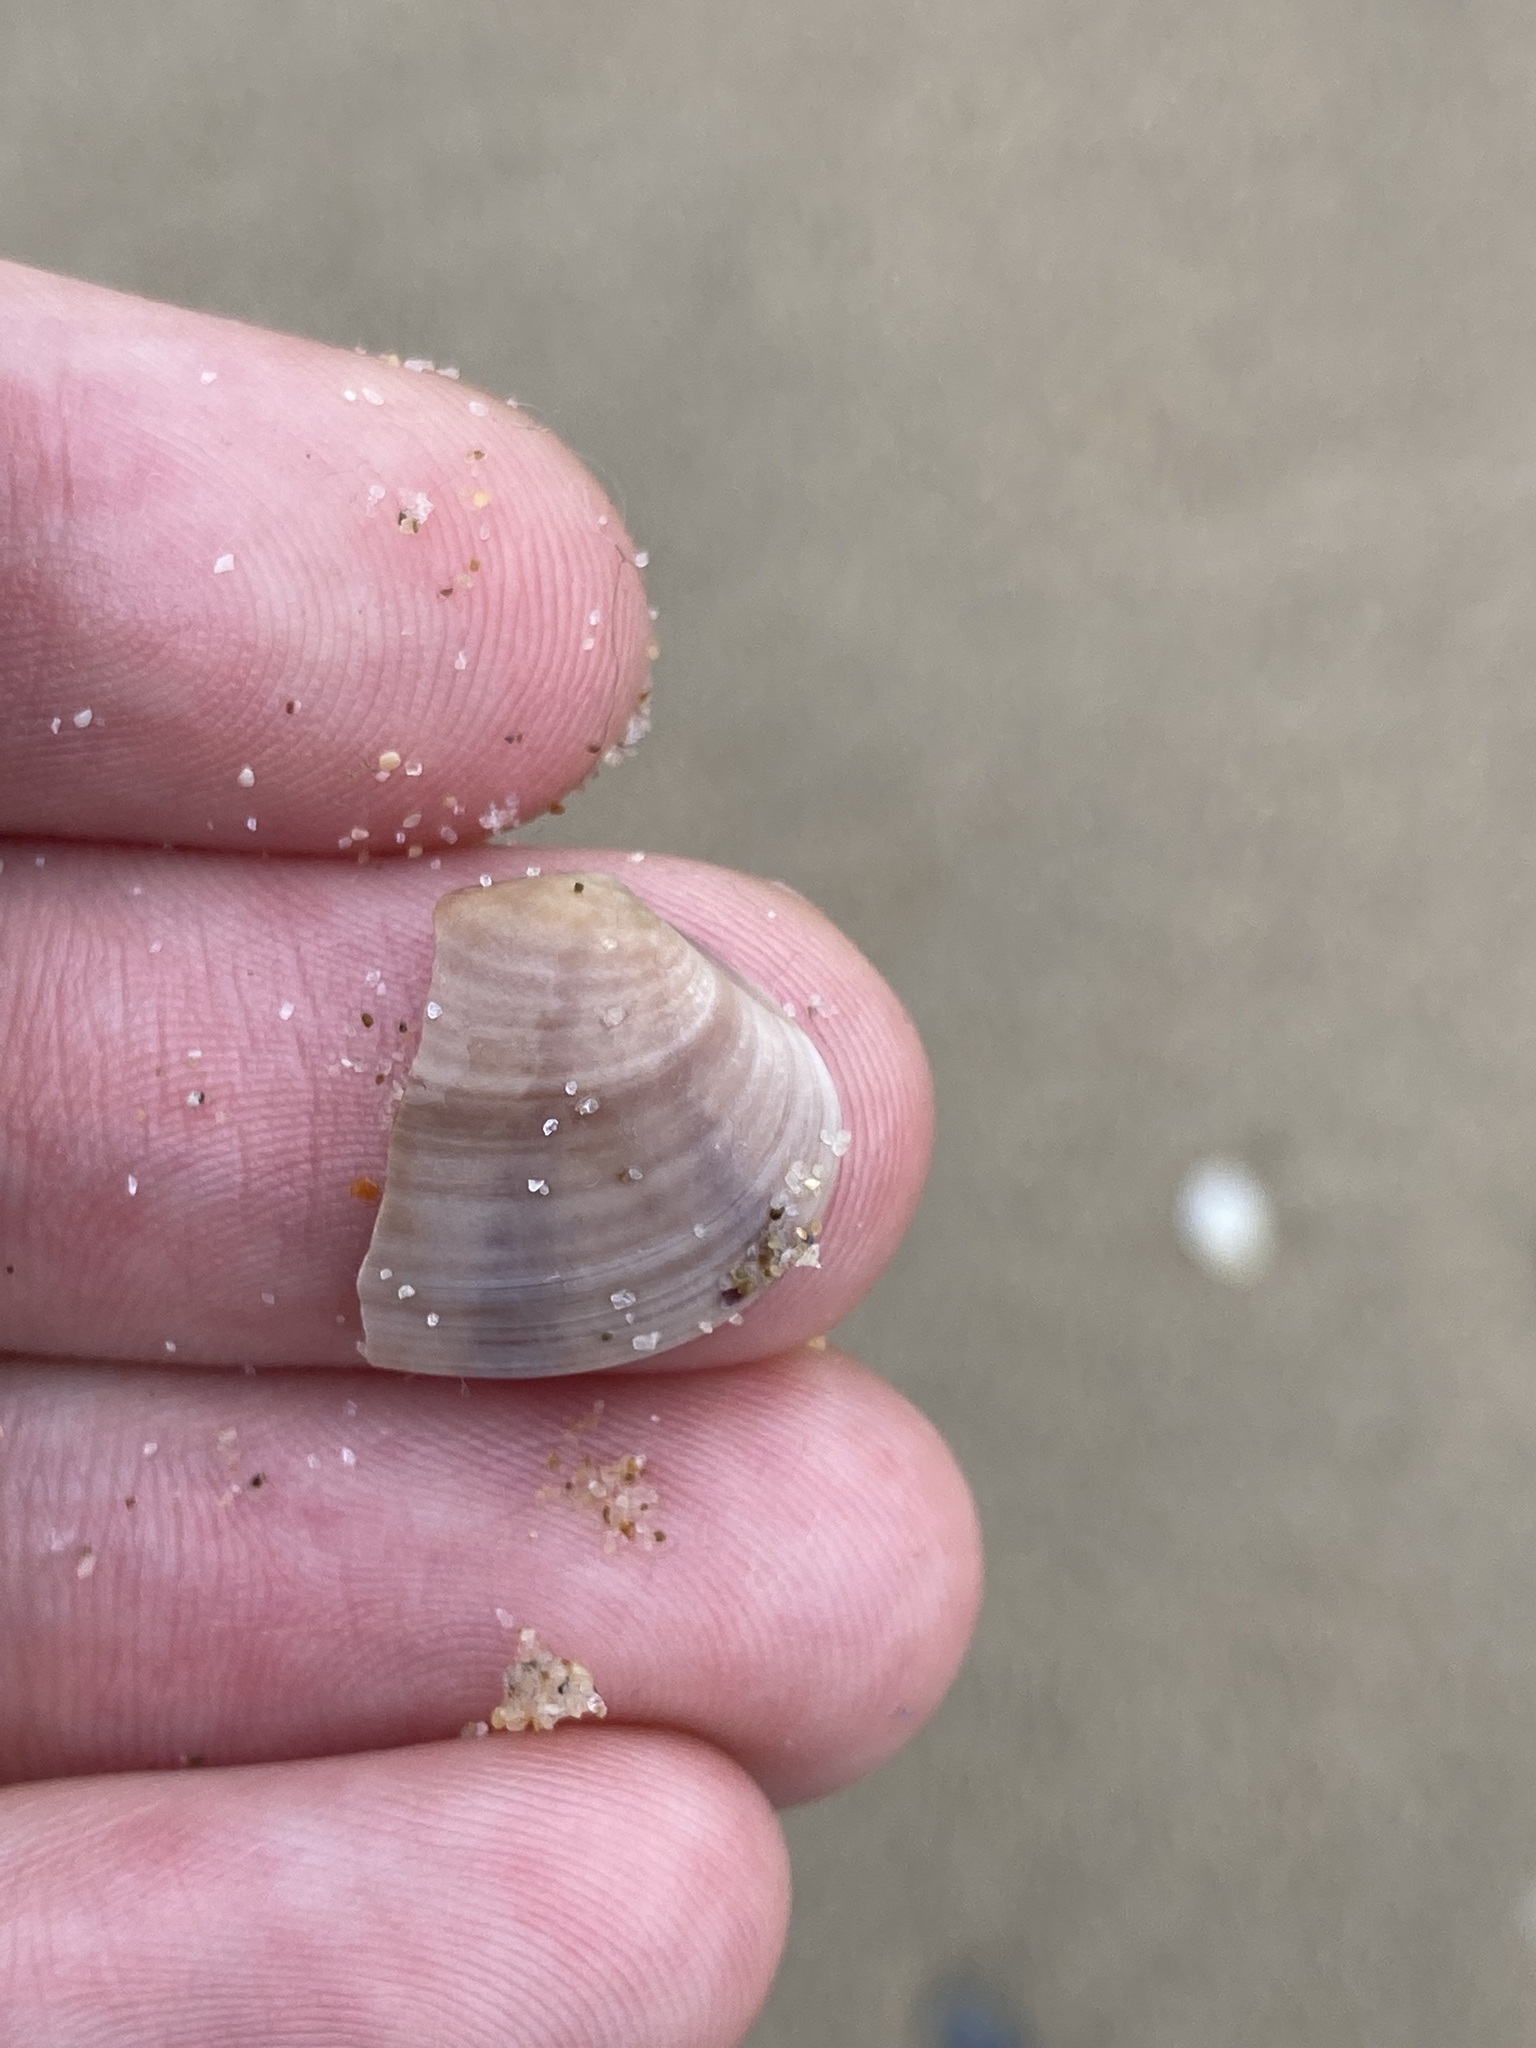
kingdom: Animalia
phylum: Mollusca
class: Bivalvia
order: Venerida
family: Veneridae
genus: Eumarcia
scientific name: Eumarcia fumigata
